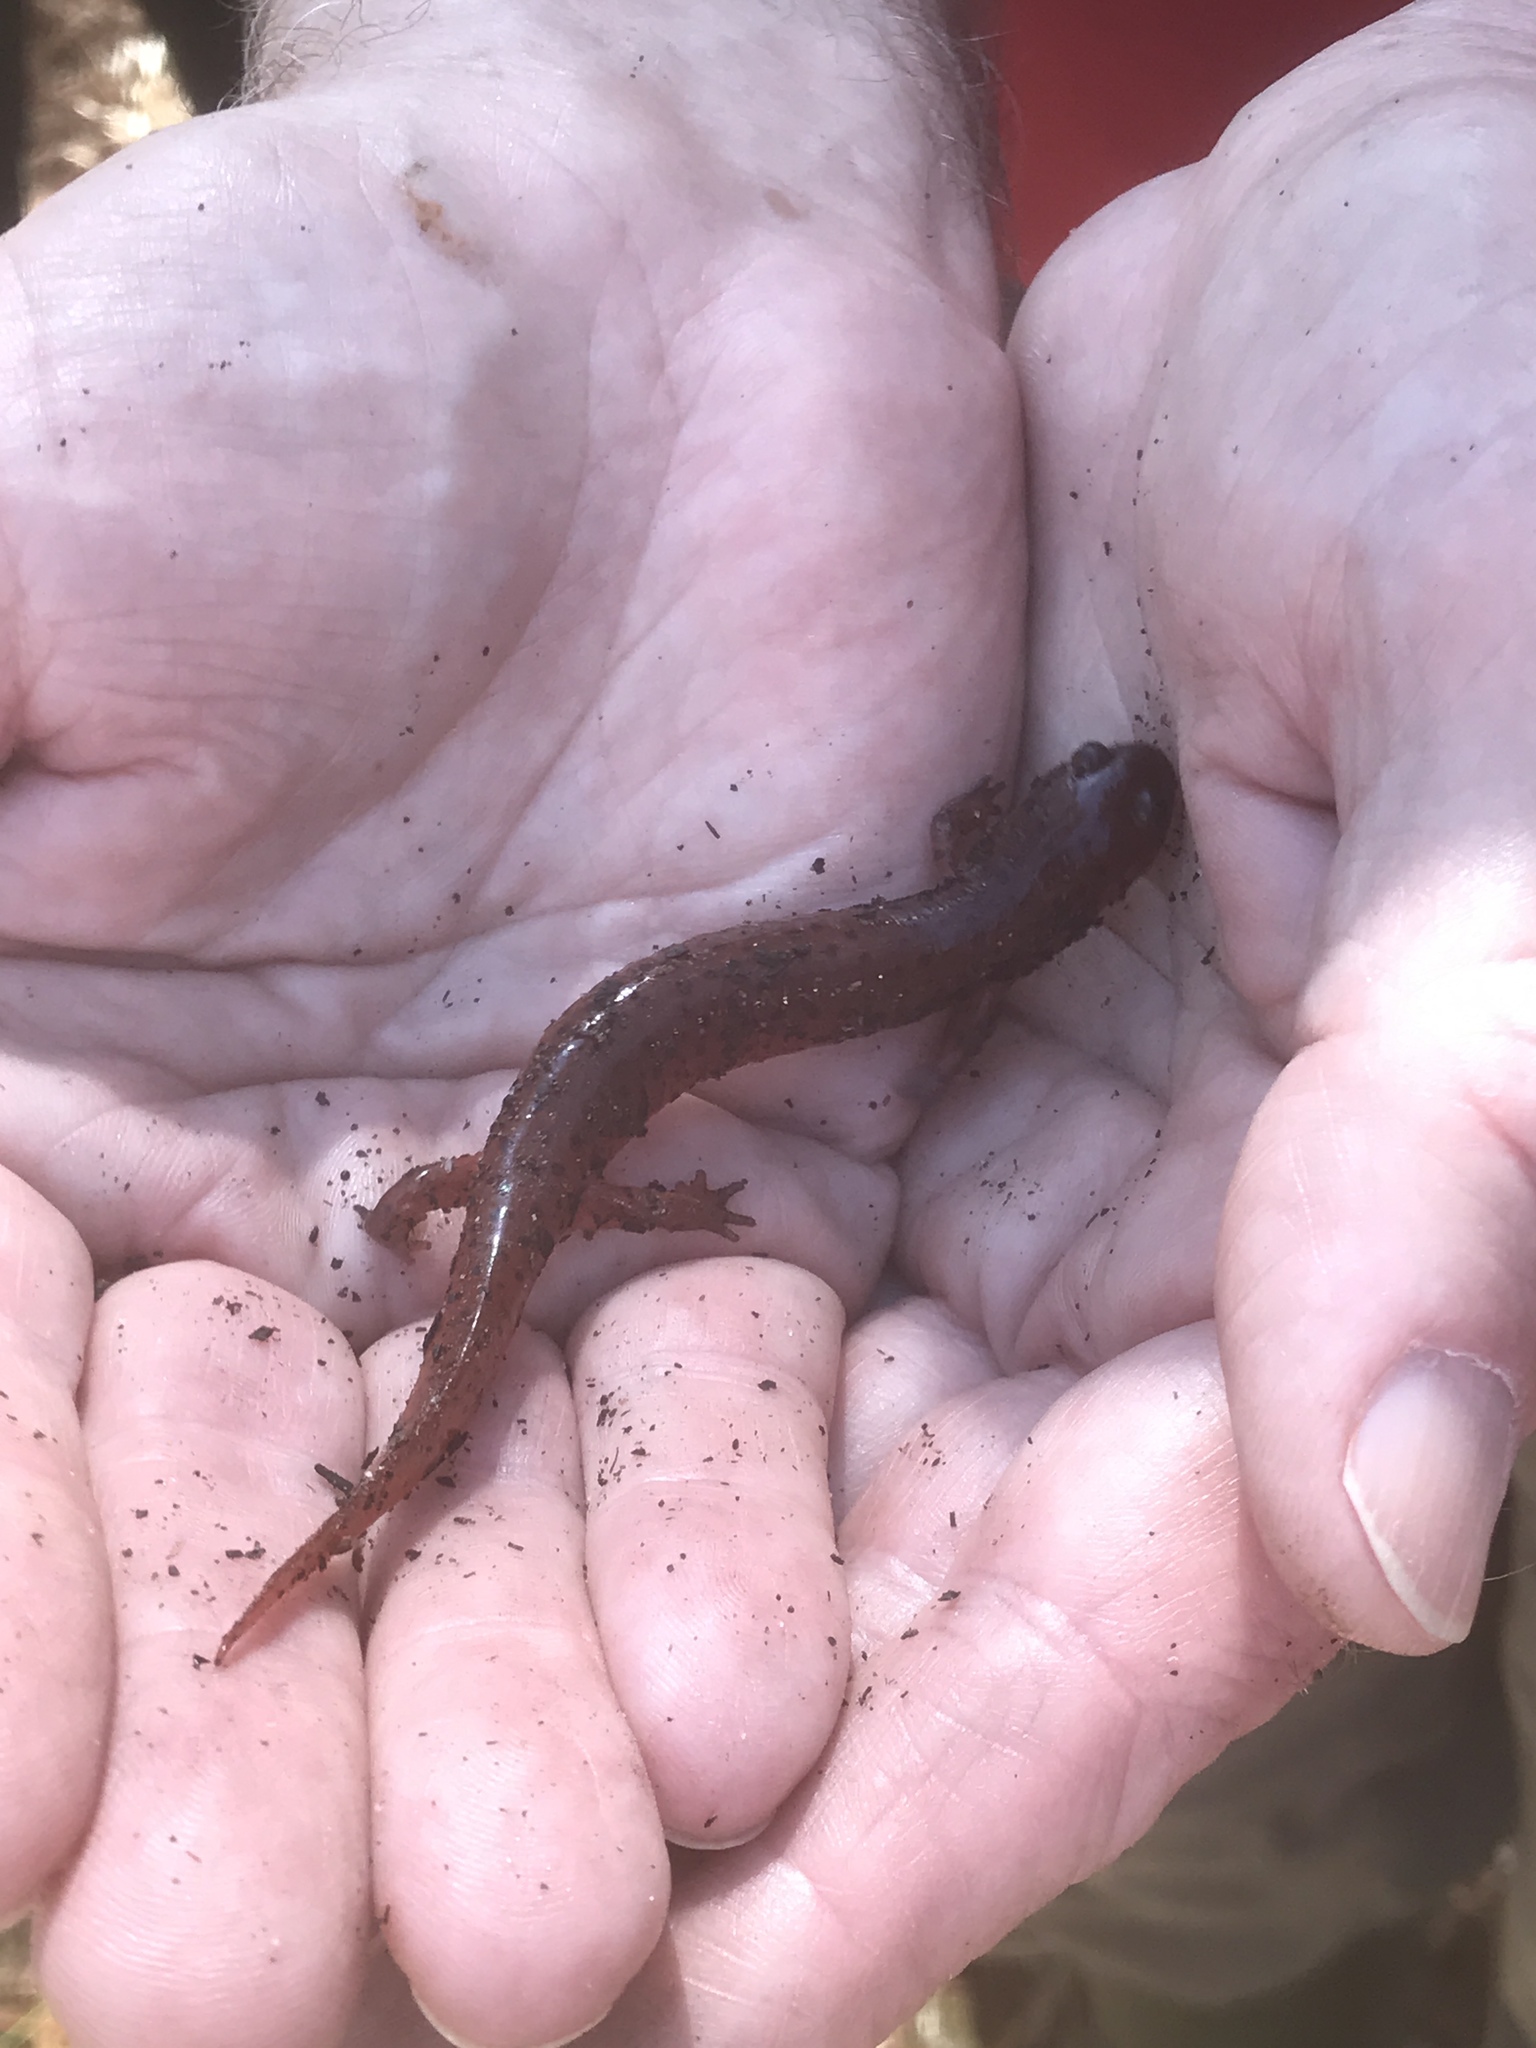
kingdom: Animalia
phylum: Chordata
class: Amphibia
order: Caudata
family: Plethodontidae
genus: Pseudotriton
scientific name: Pseudotriton montanus
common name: Mud salamander
